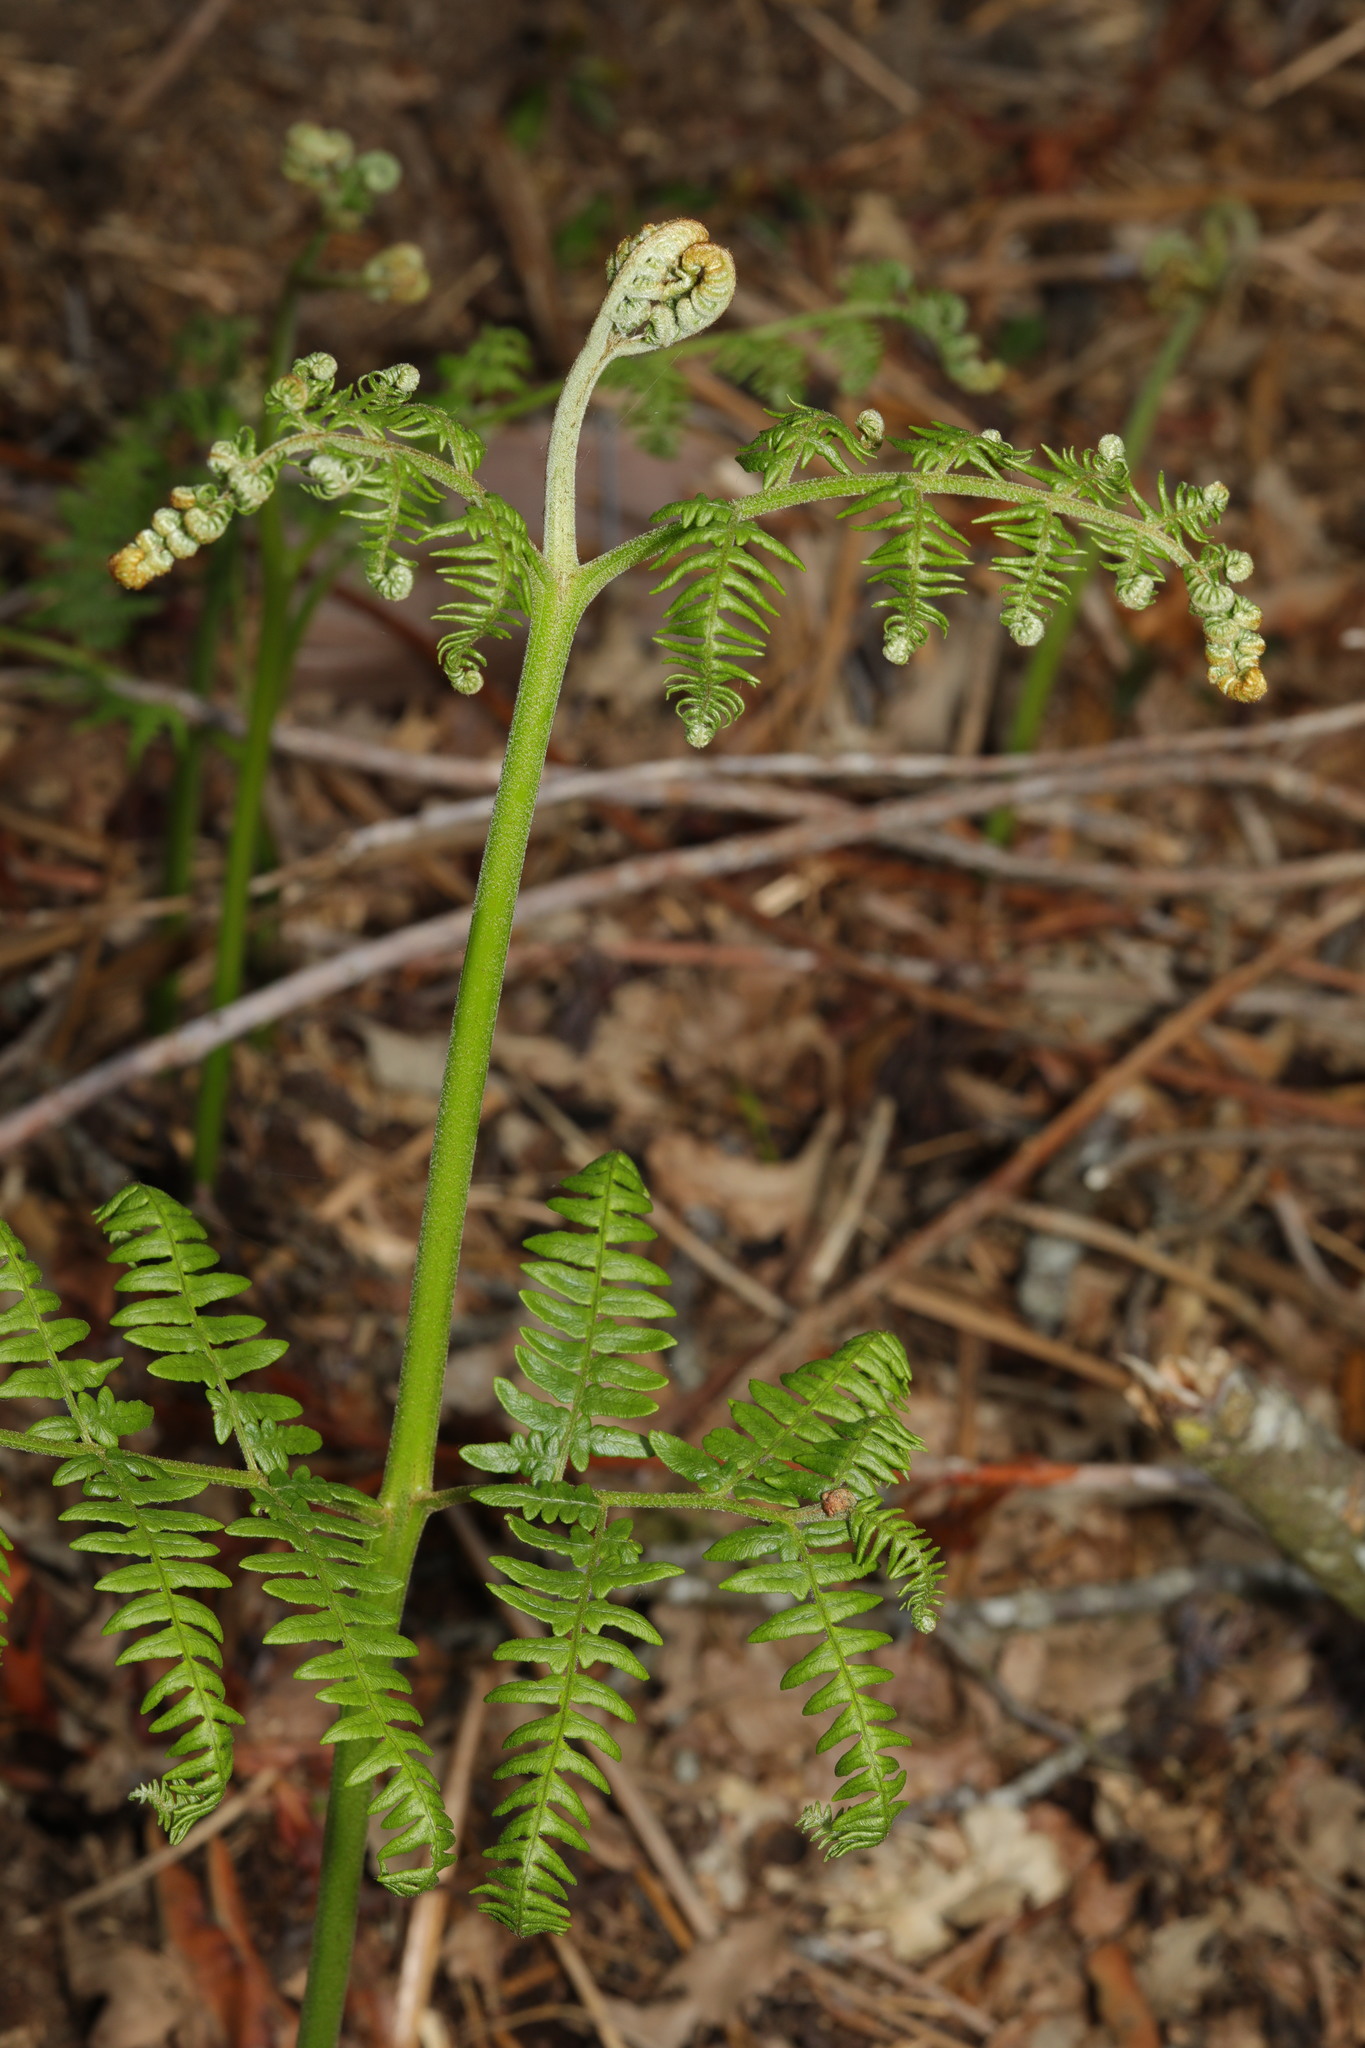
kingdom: Plantae
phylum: Tracheophyta
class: Polypodiopsida
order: Polypodiales
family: Dennstaedtiaceae
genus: Pteridium
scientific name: Pteridium aquilinum
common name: Bracken
